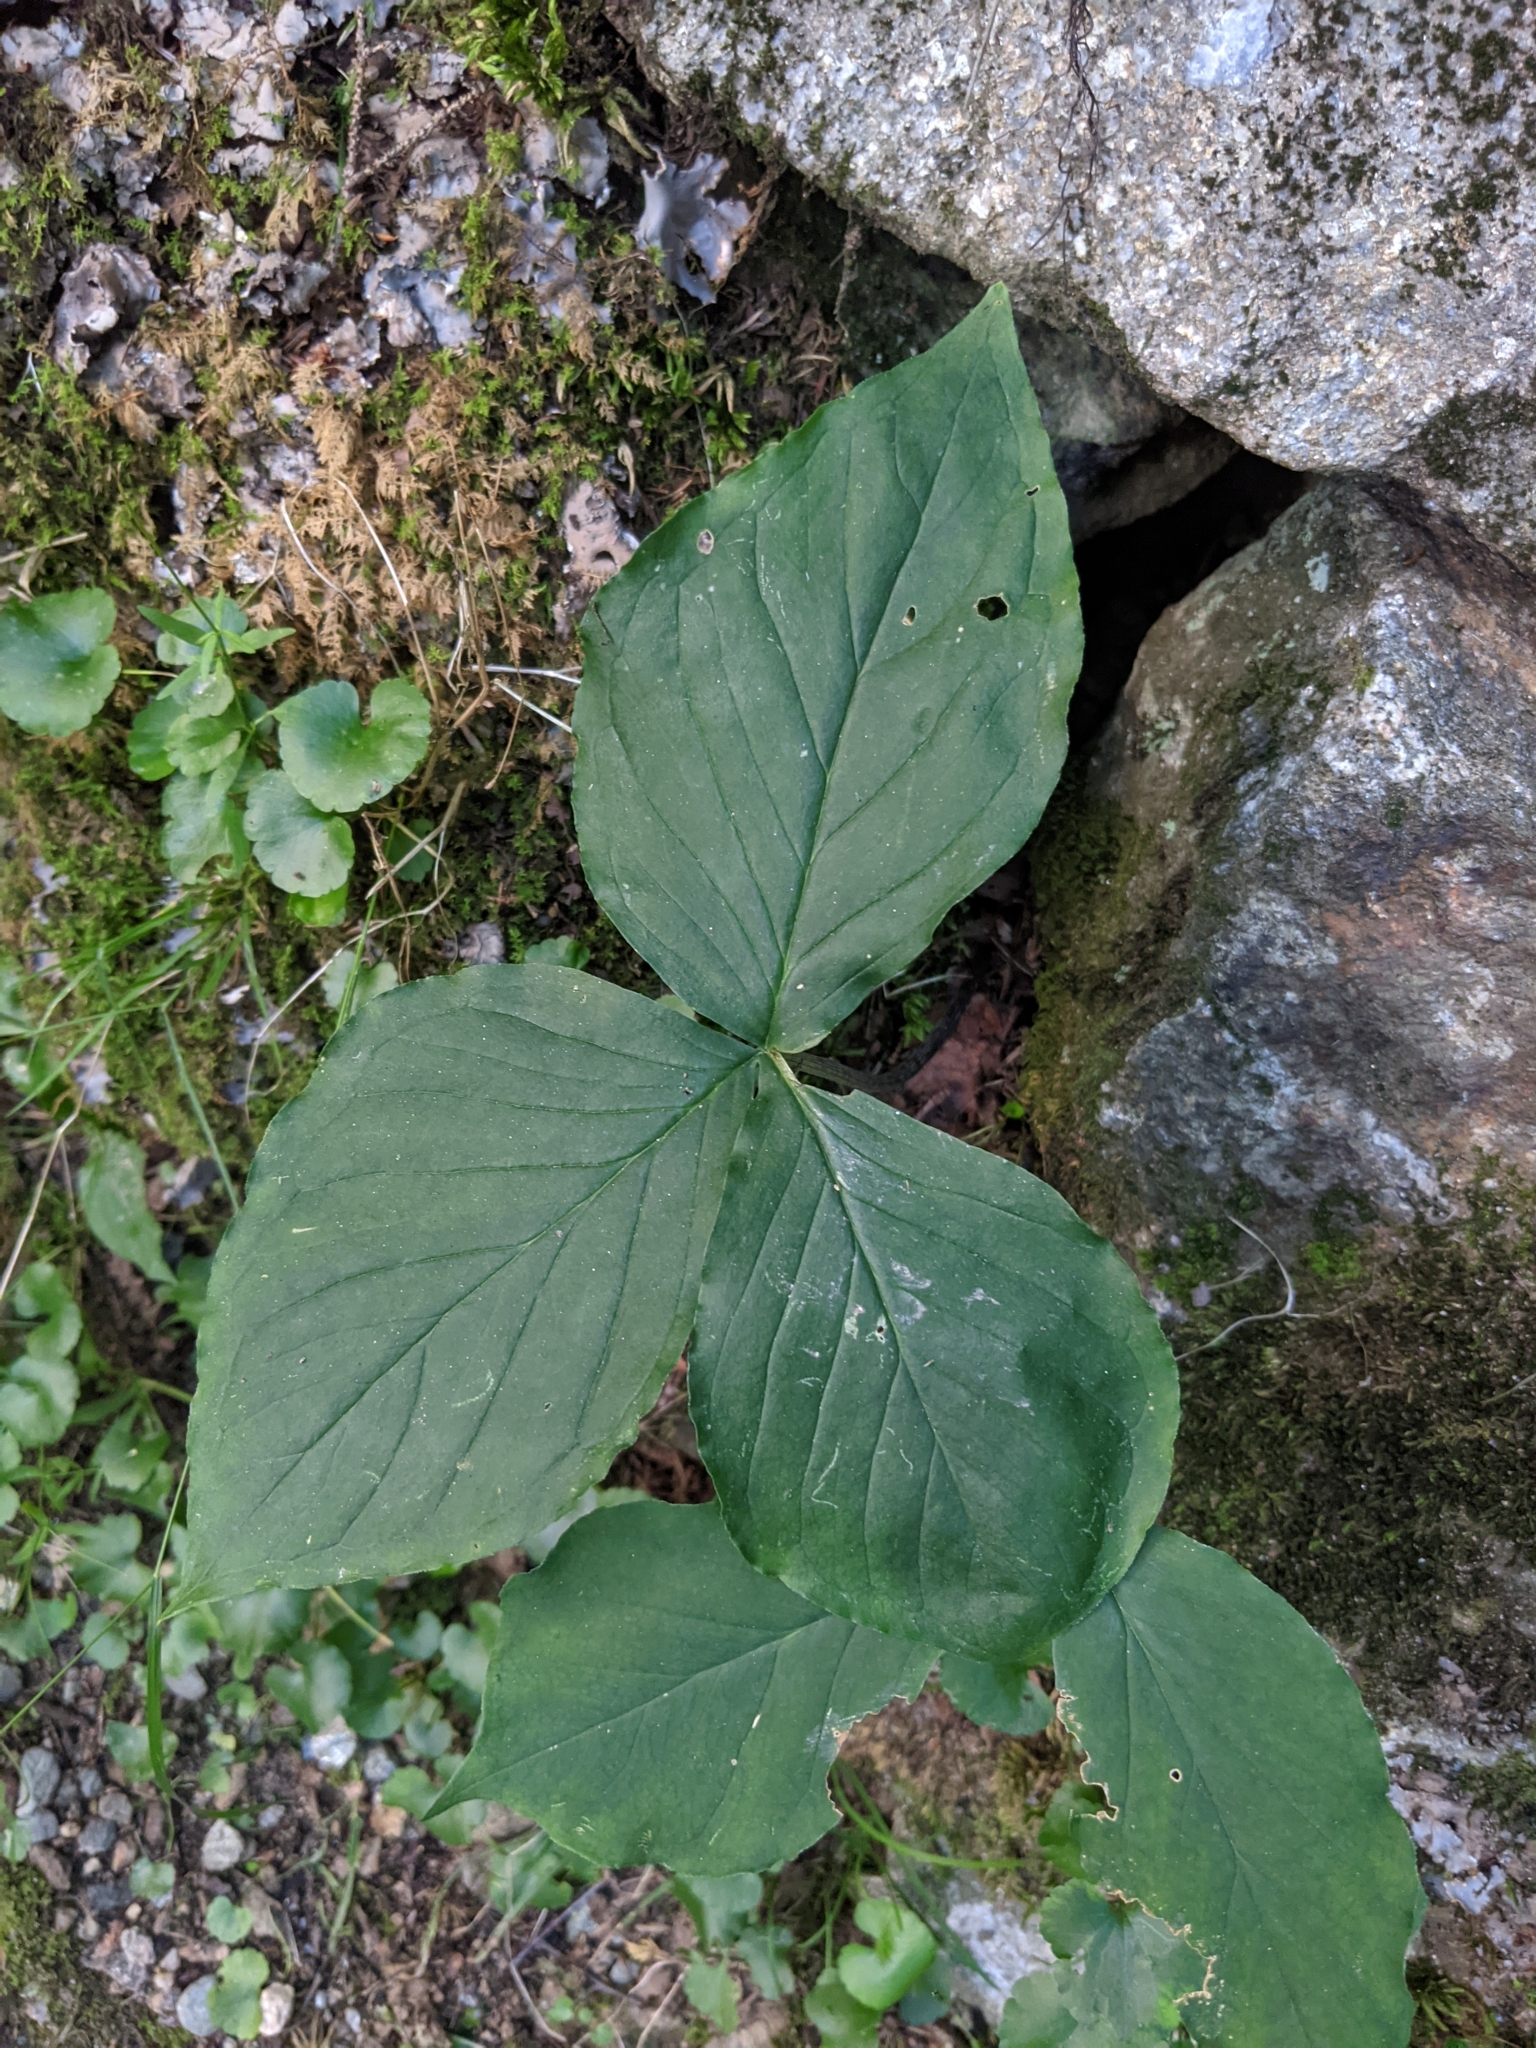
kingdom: Plantae
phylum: Tracheophyta
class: Liliopsida
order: Alismatales
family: Araceae
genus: Arisaema
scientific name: Arisaema triphyllum
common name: Jack-in-the-pulpit
